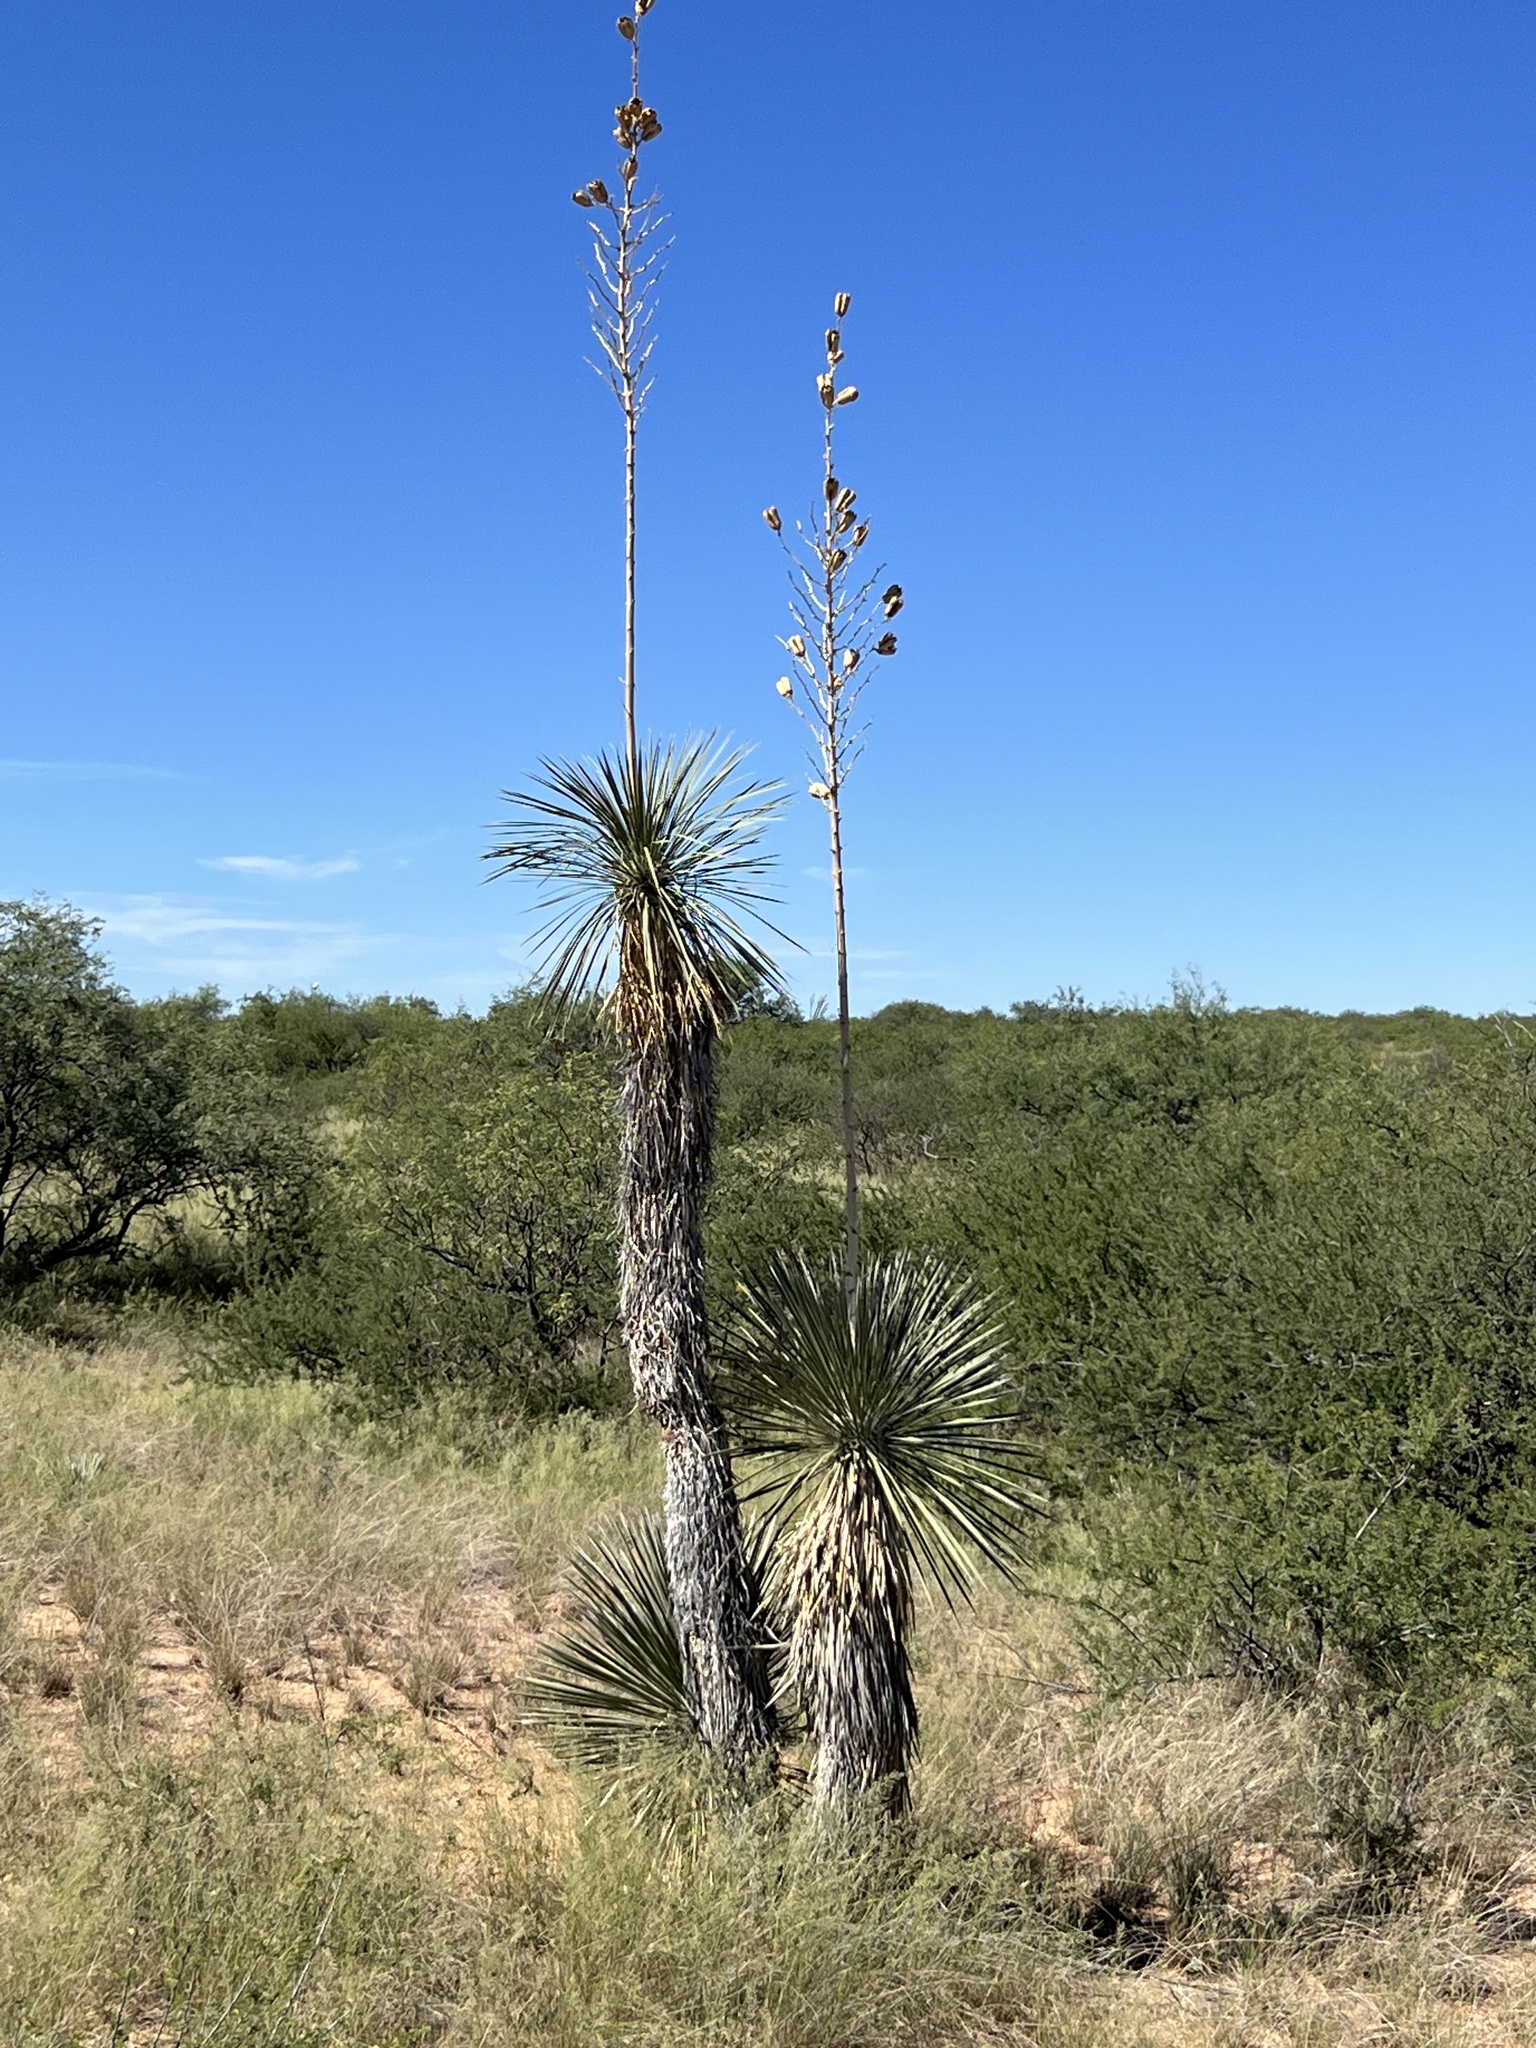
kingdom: Plantae
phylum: Tracheophyta
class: Liliopsida
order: Asparagales
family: Asparagaceae
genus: Yucca
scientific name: Yucca elata
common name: Palmella
